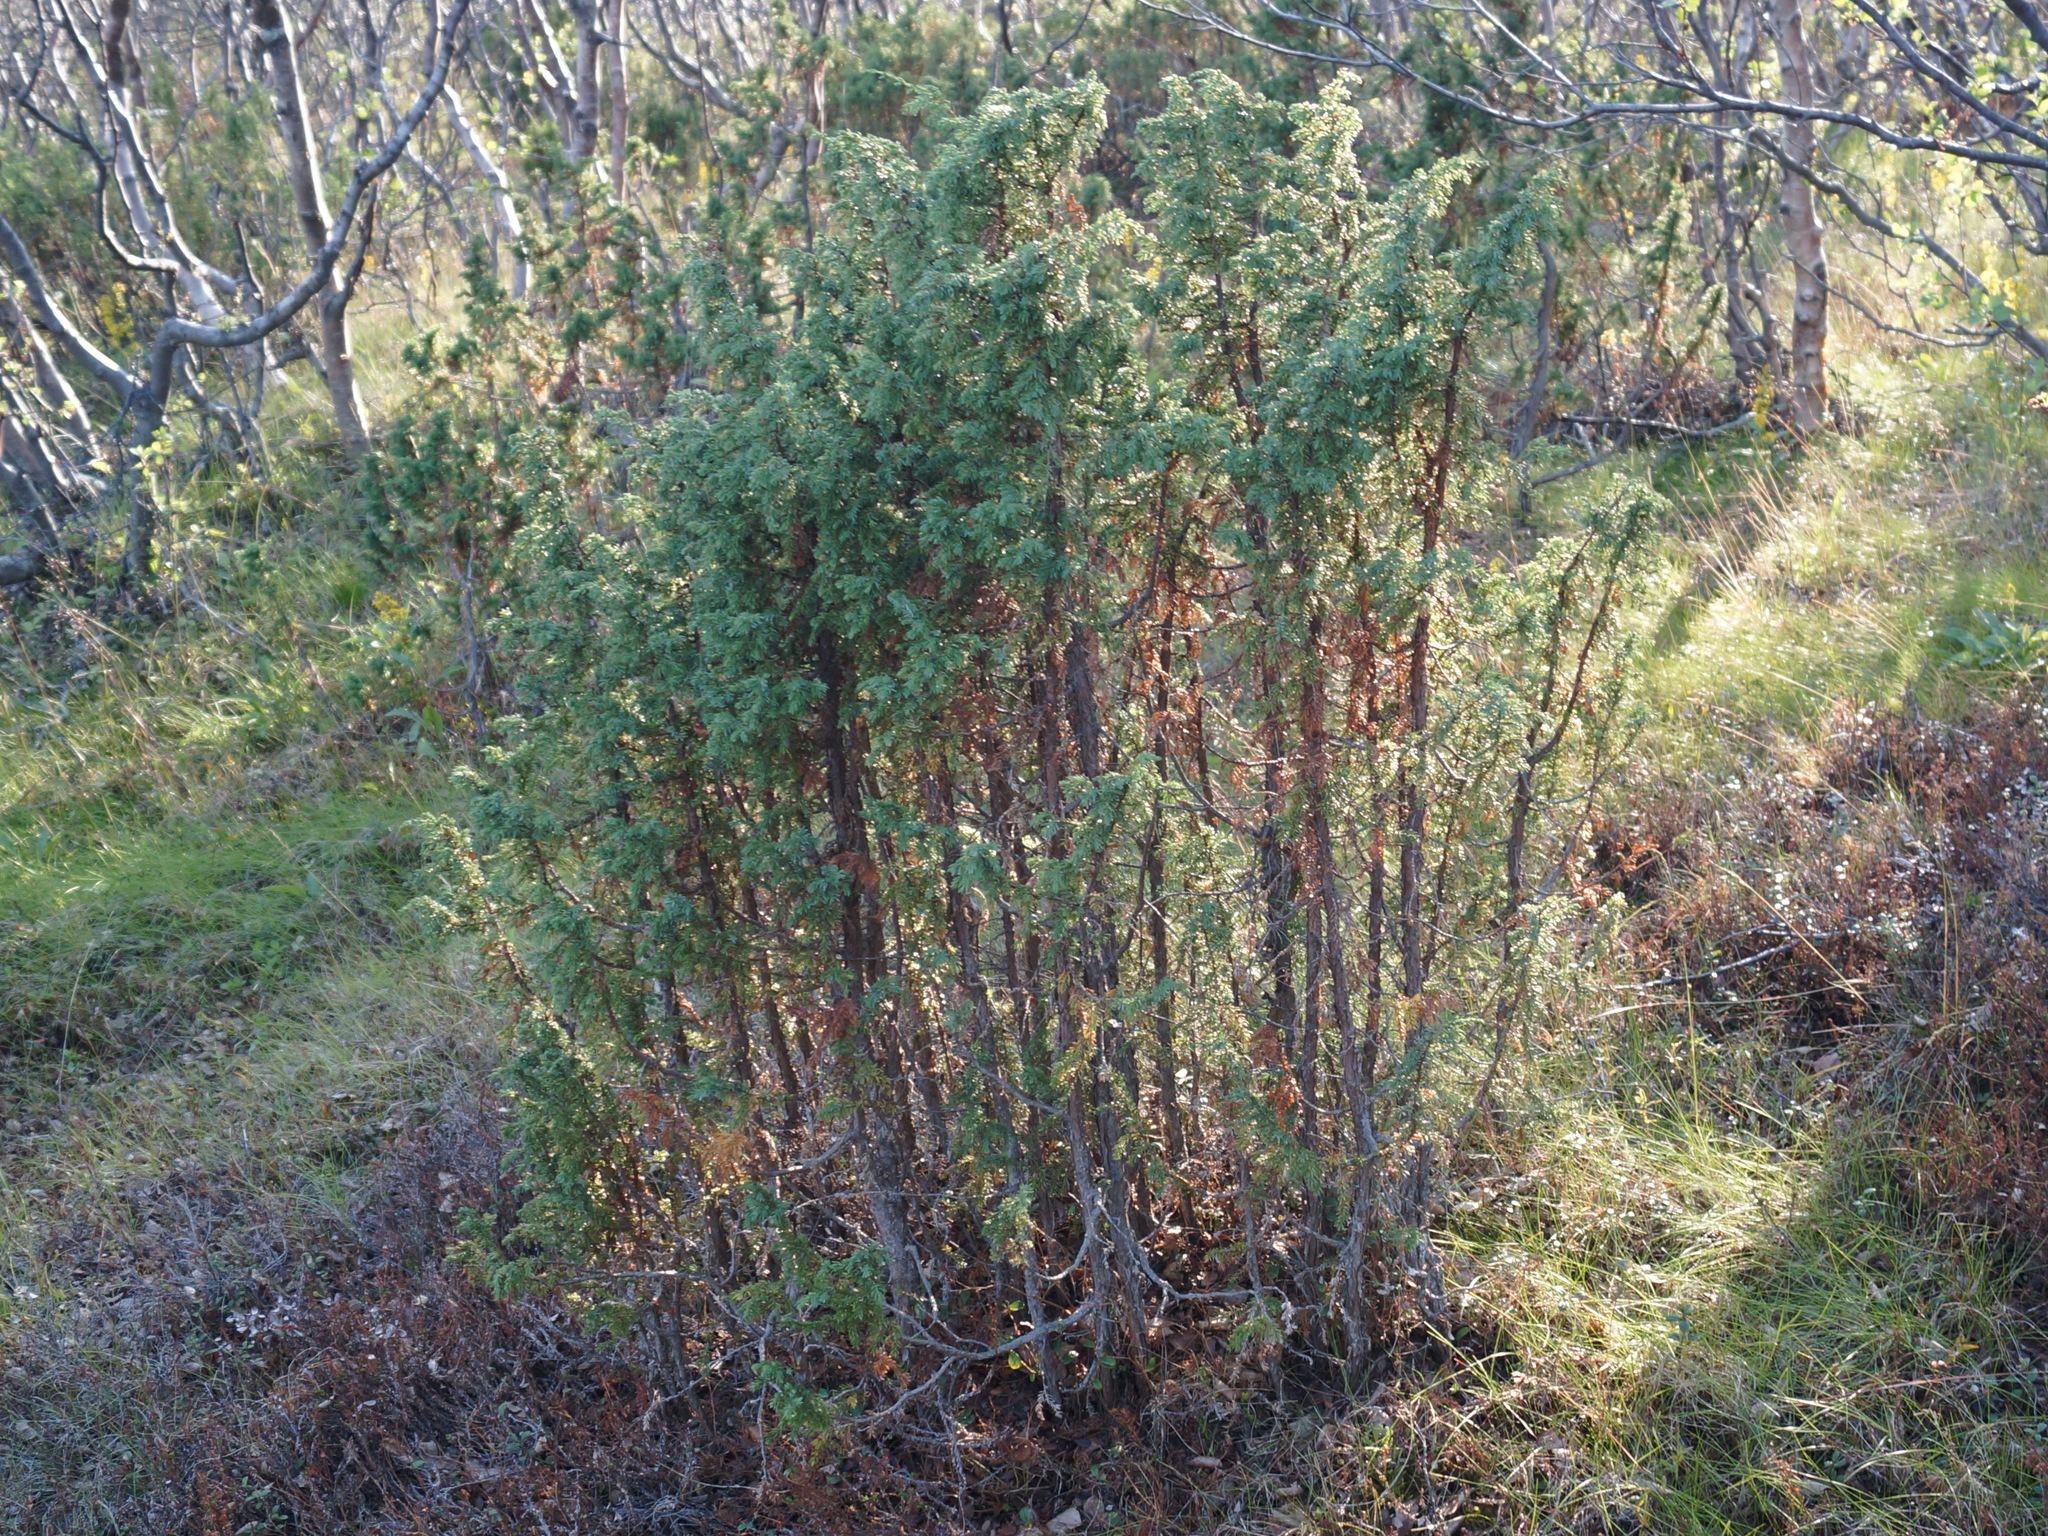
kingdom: Plantae
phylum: Tracheophyta
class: Pinopsida
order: Pinales
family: Cupressaceae
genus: Juniperus
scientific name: Juniperus communis
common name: Common juniper
